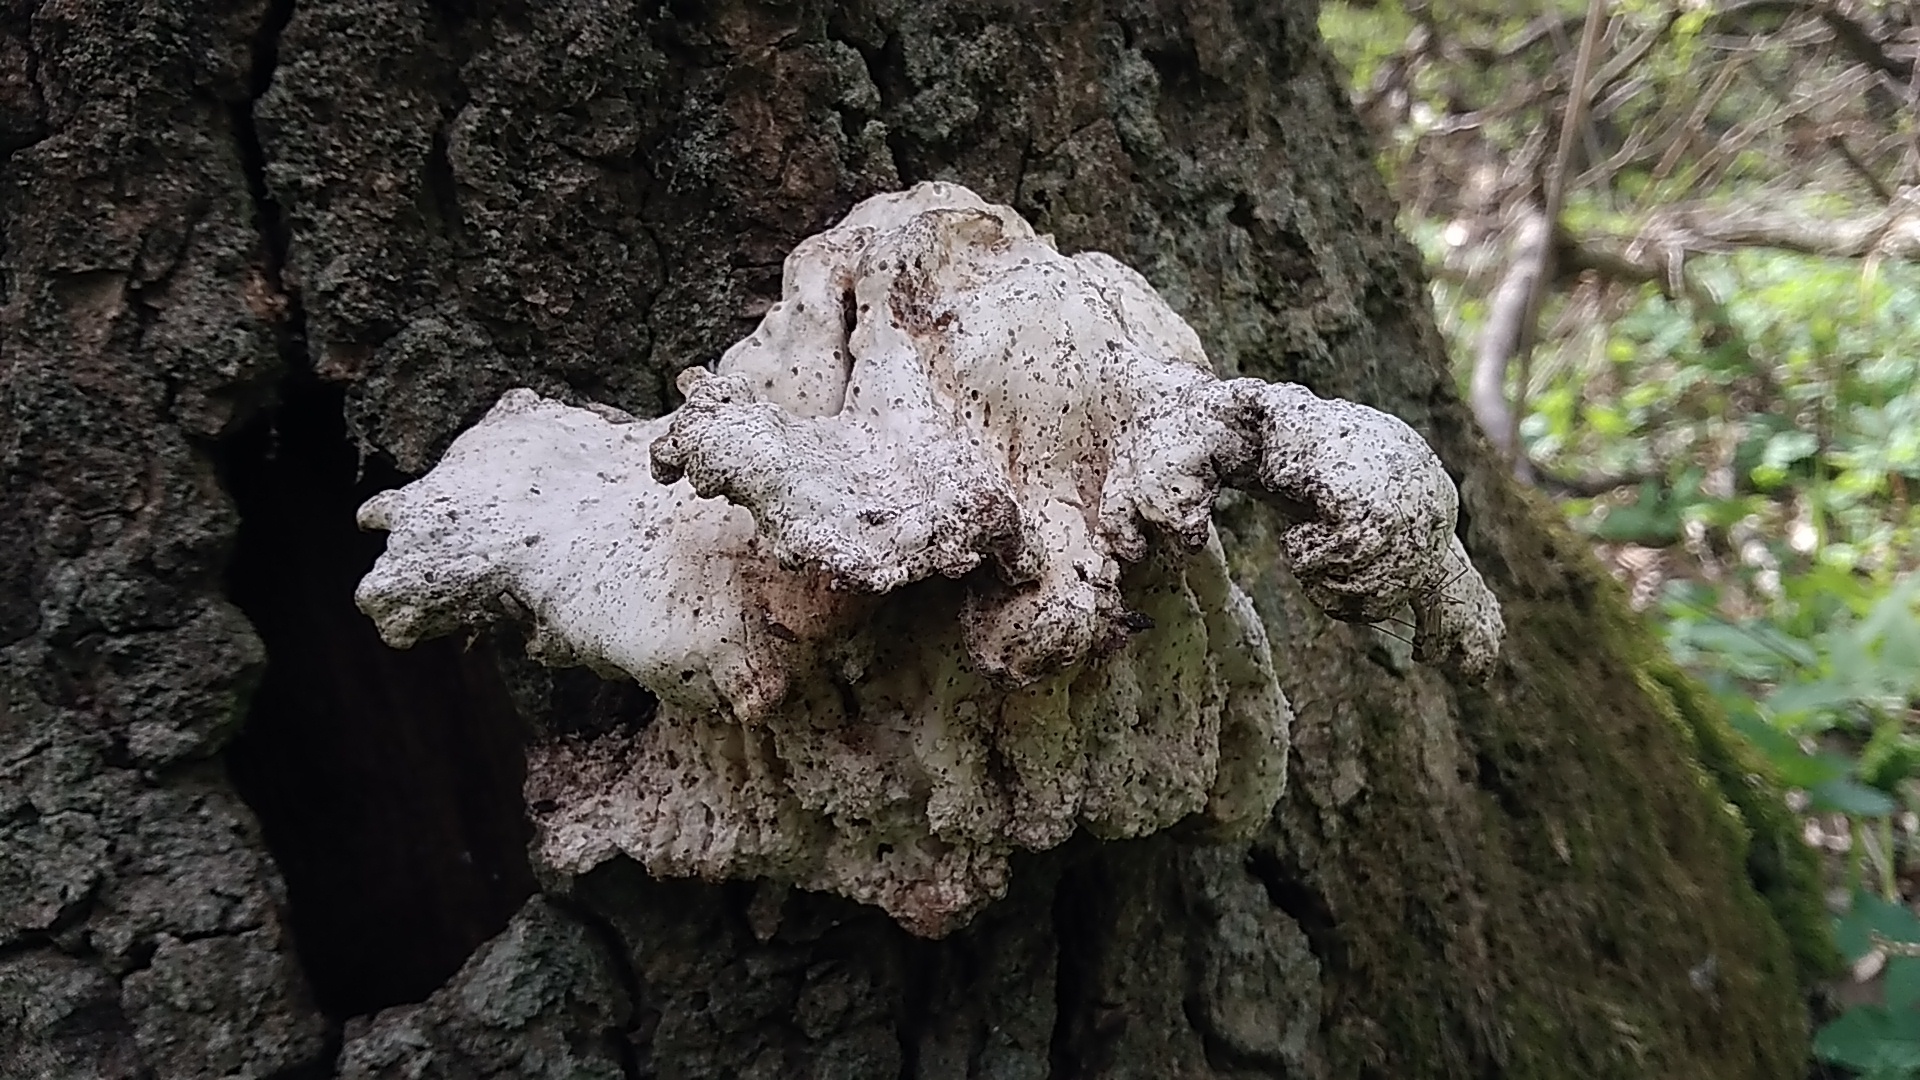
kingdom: Fungi
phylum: Basidiomycota
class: Agaricomycetes
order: Polyporales
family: Laetiporaceae
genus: Laetiporus
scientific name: Laetiporus sulphureus
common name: Chicken of the woods
